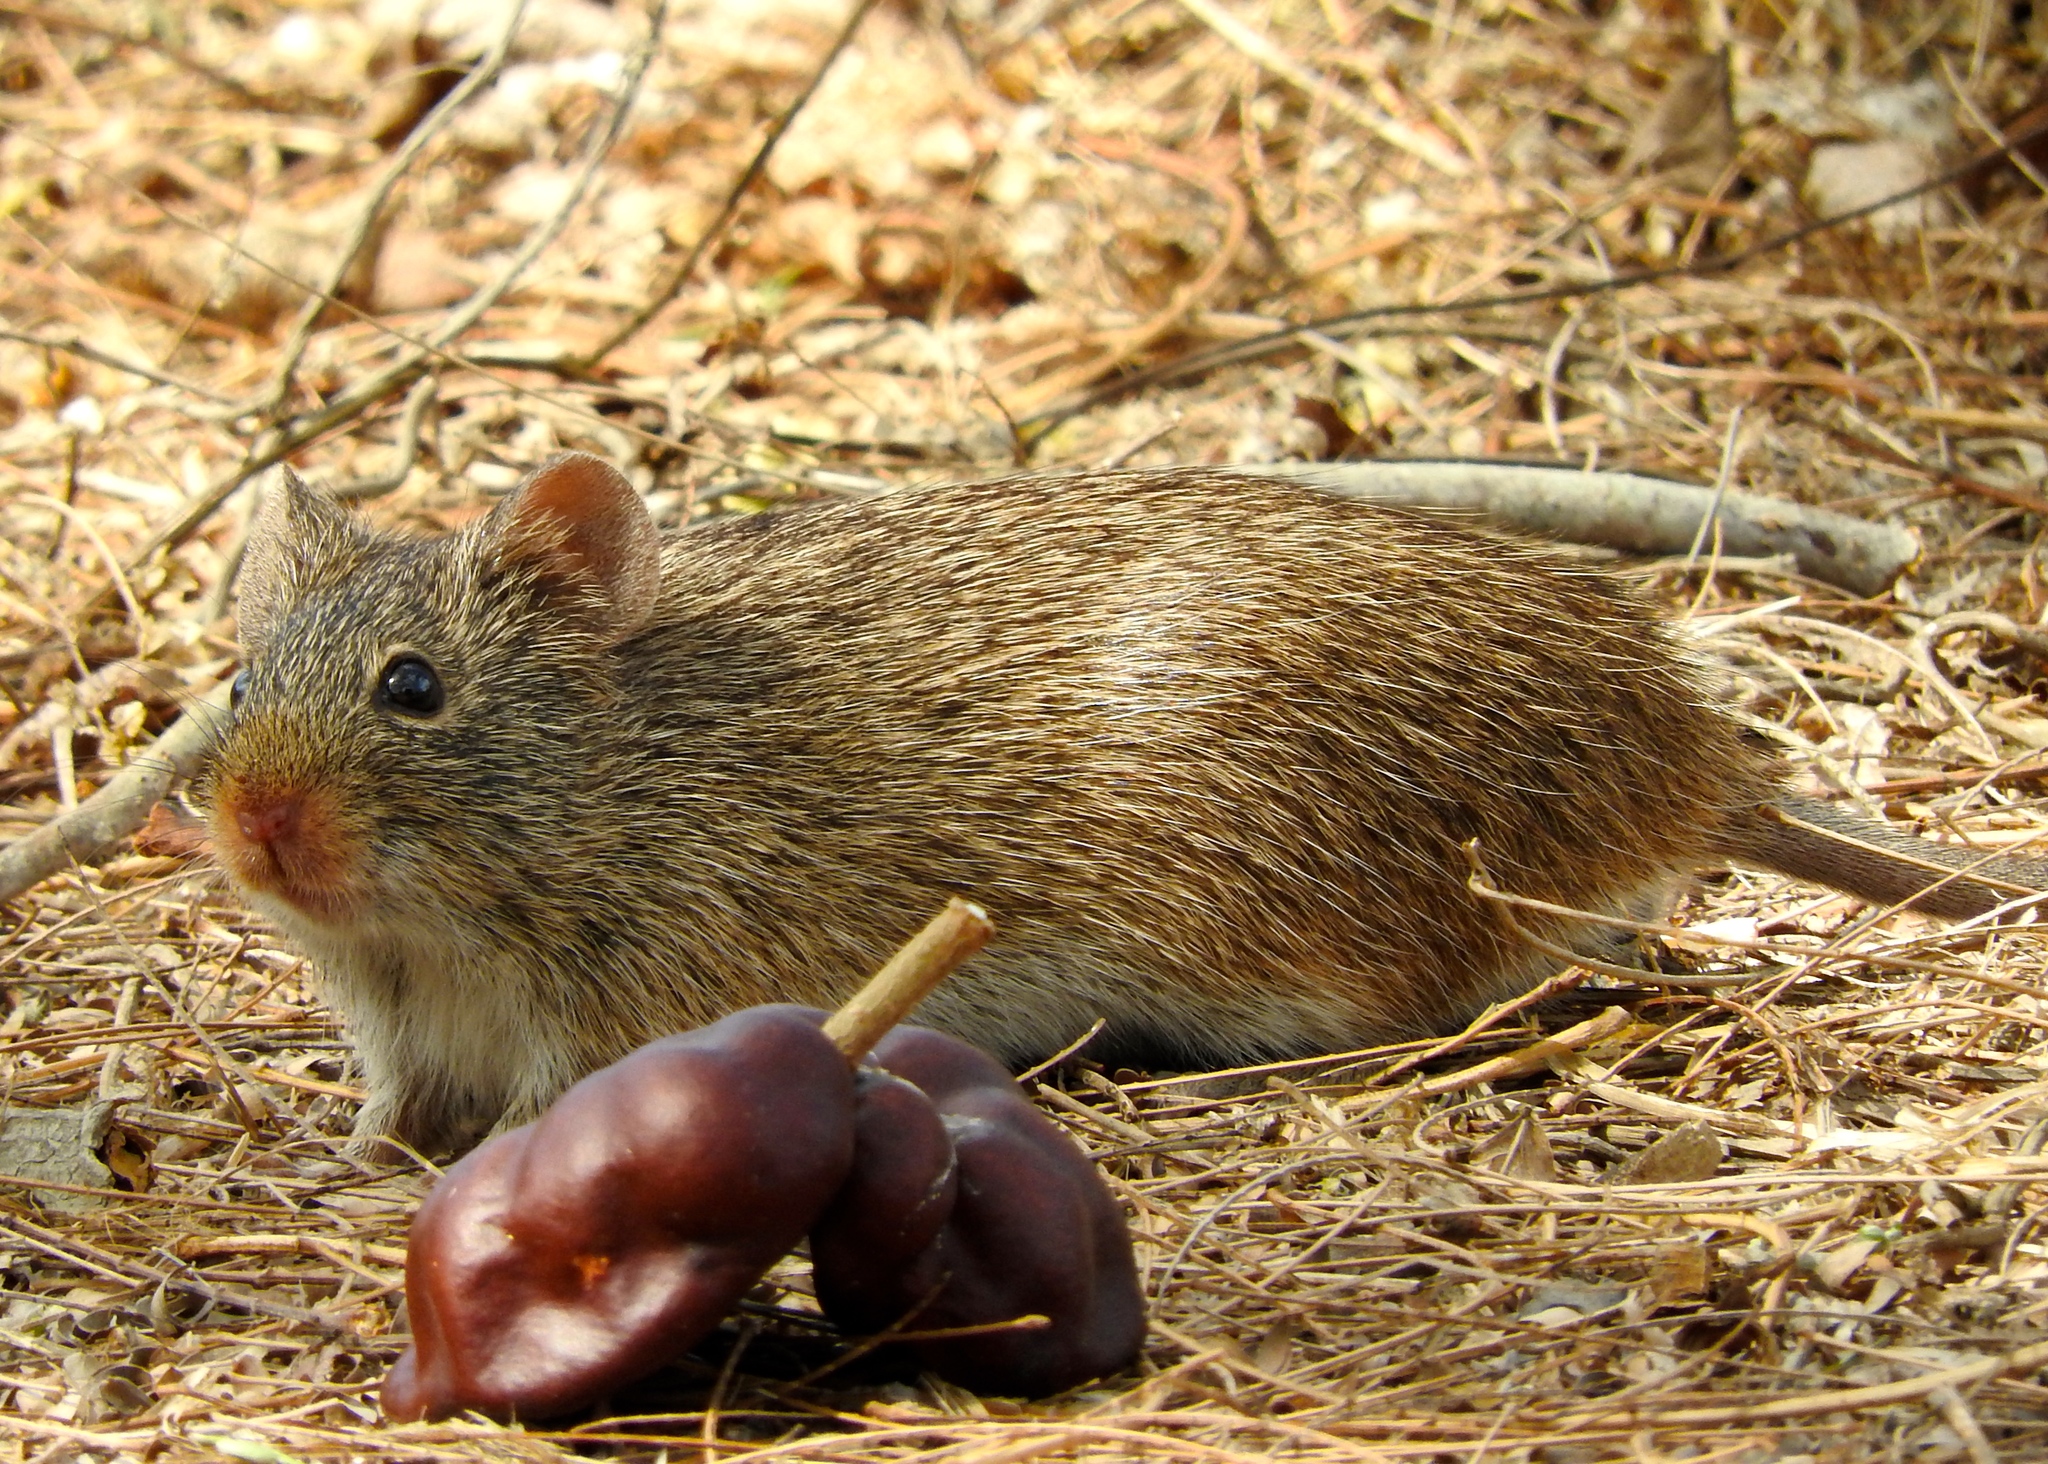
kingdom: Animalia
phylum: Chordata
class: Mammalia
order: Rodentia
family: Cricetidae
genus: Sigmodon
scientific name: Sigmodon arizonae
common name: Arizona cotton rat
